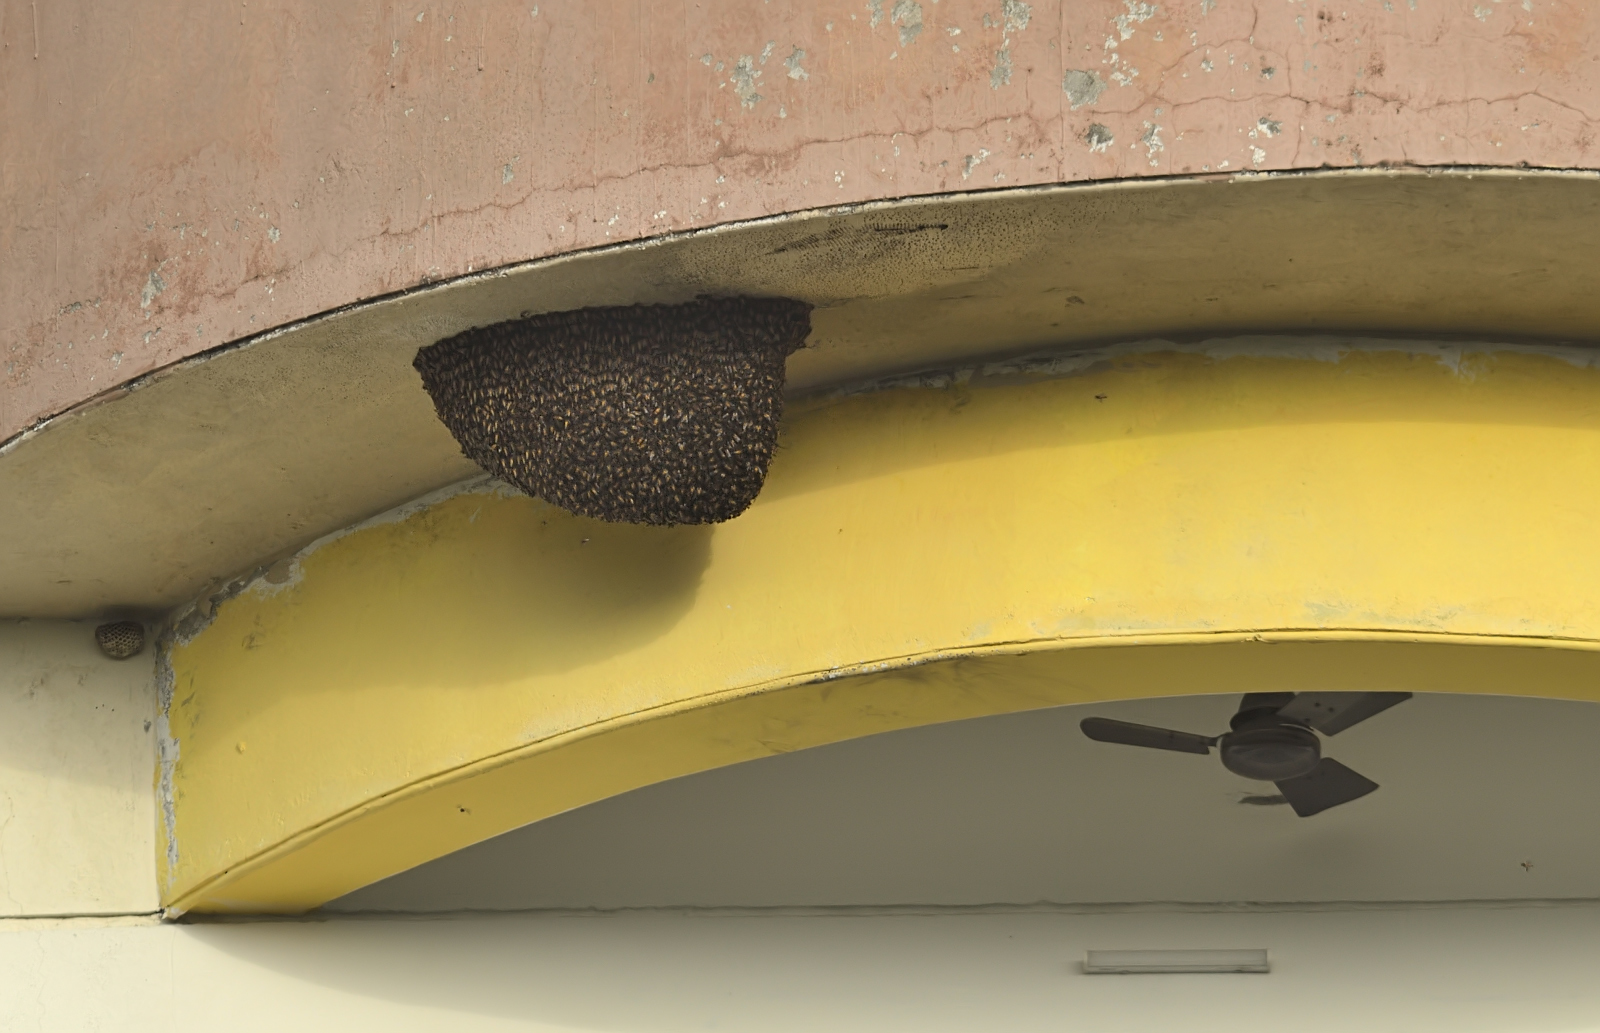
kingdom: Animalia
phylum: Arthropoda
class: Insecta
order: Hymenoptera
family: Apidae
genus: Apis
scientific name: Apis dorsata
